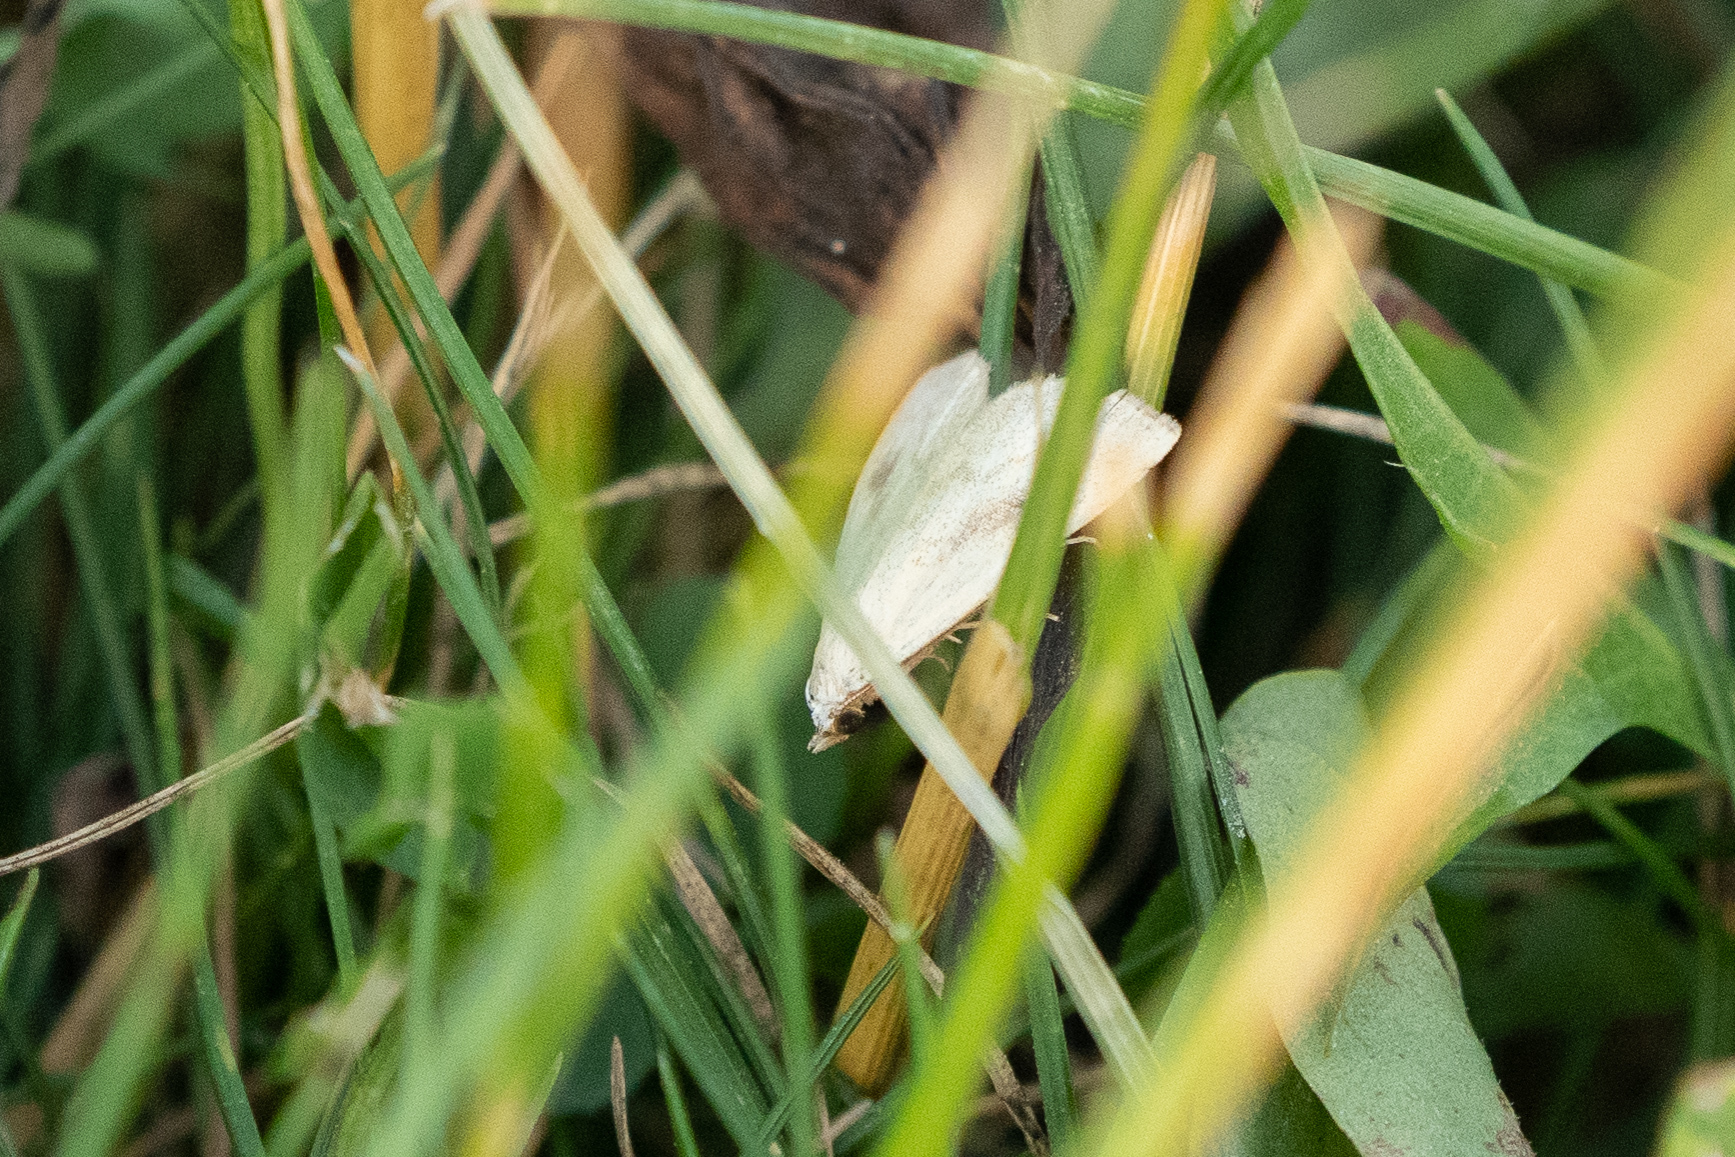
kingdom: Animalia
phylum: Arthropoda
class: Insecta
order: Lepidoptera
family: Erebidae
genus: Rivula
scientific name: Rivula sericealis
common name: Straw dot
